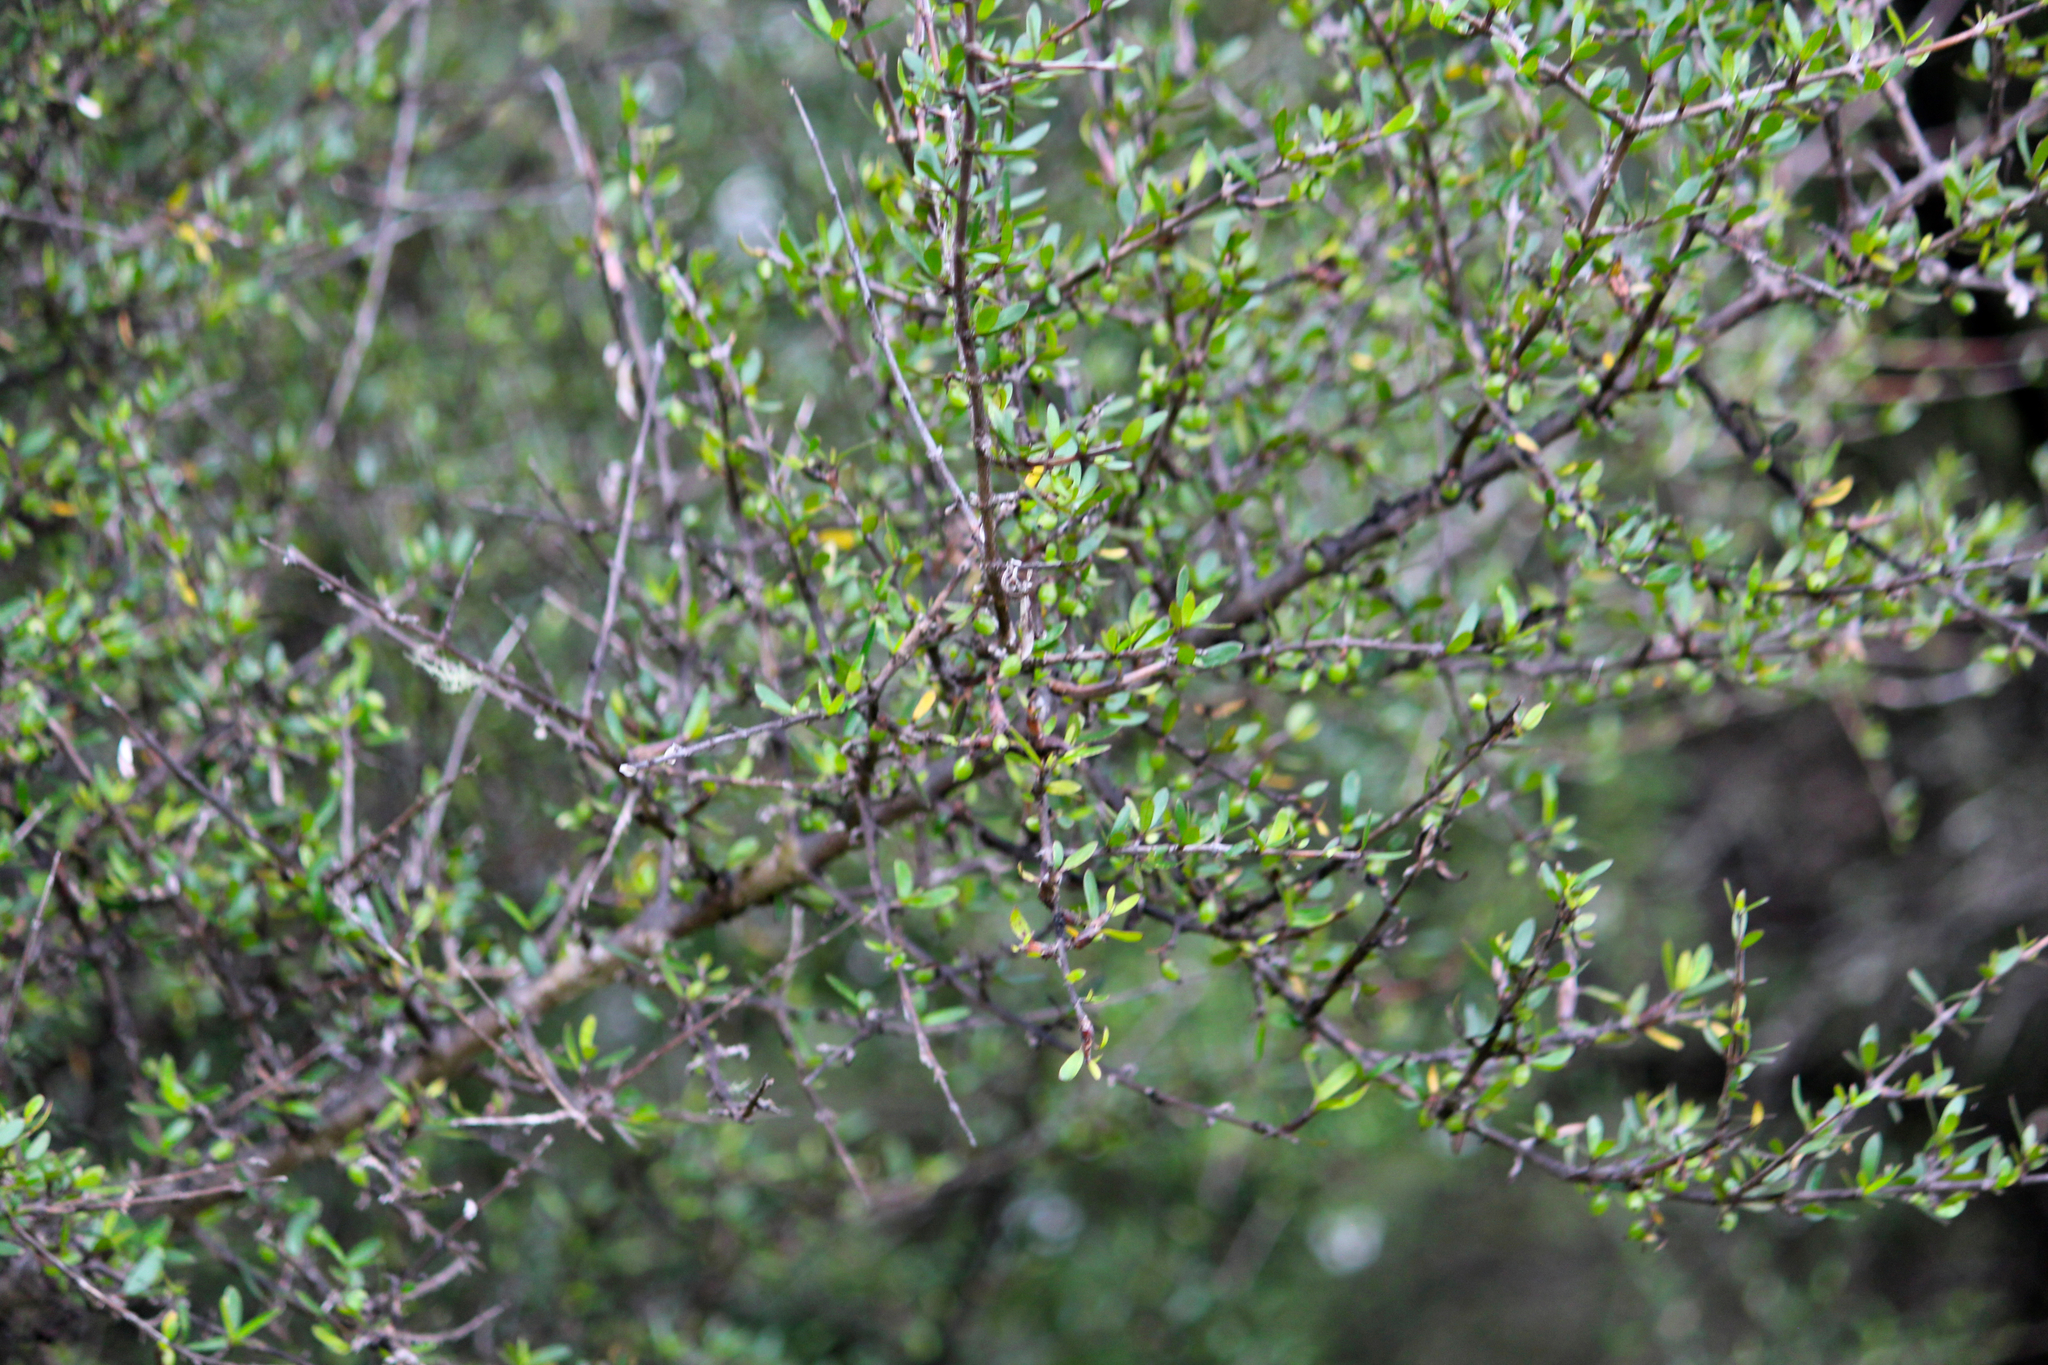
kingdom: Plantae
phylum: Tracheophyta
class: Magnoliopsida
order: Gentianales
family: Rubiaceae
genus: Coprosma
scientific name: Coprosma propinqua
